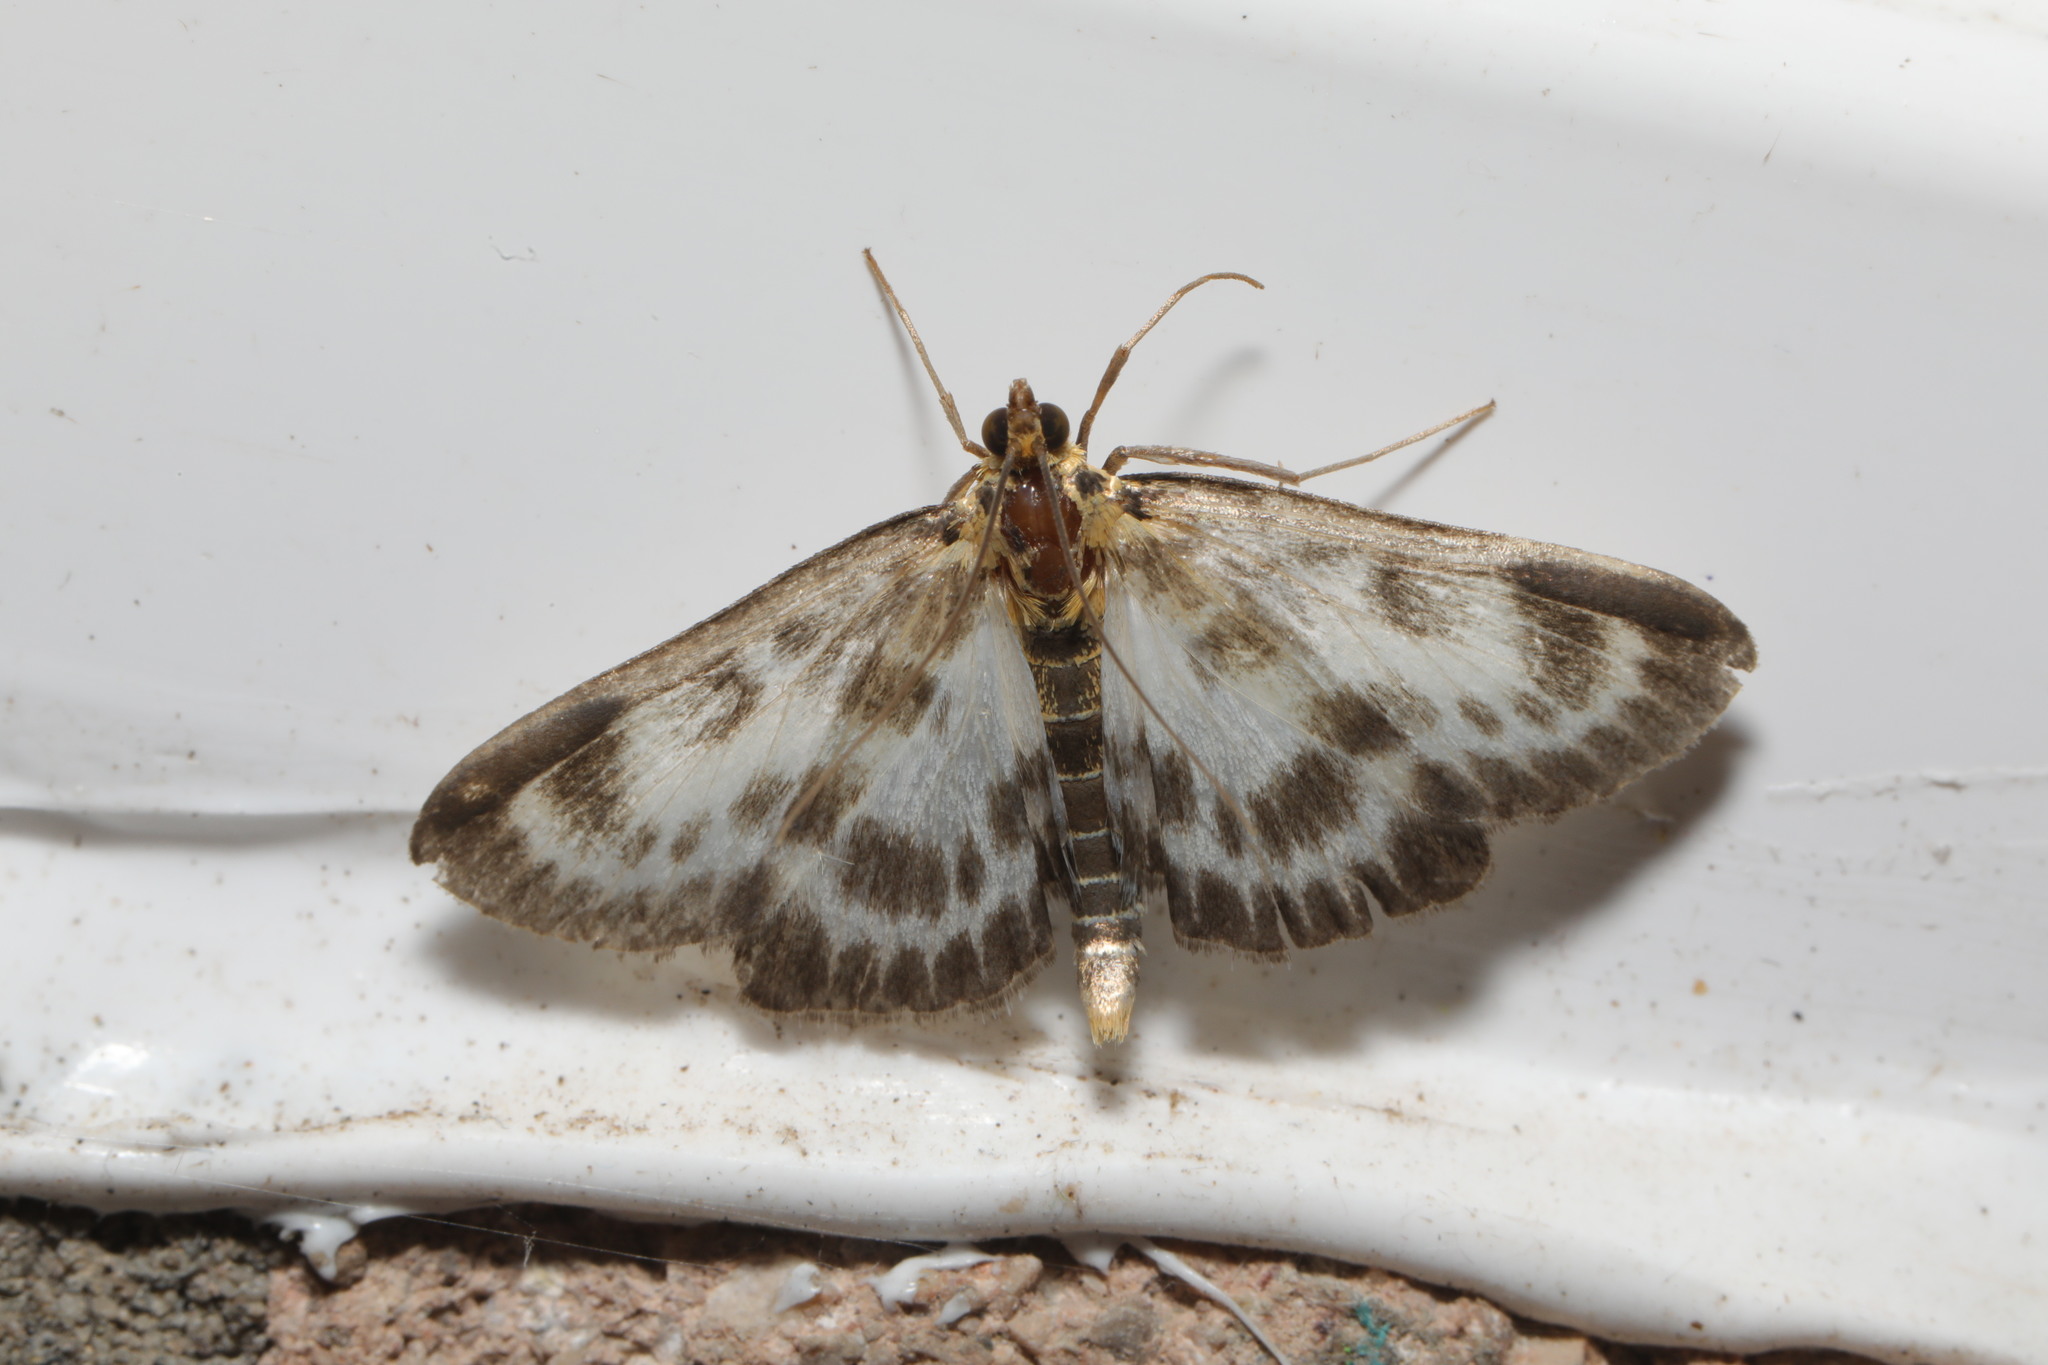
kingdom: Animalia
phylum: Arthropoda
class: Insecta
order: Lepidoptera
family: Crambidae
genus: Anania
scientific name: Anania hortulata
